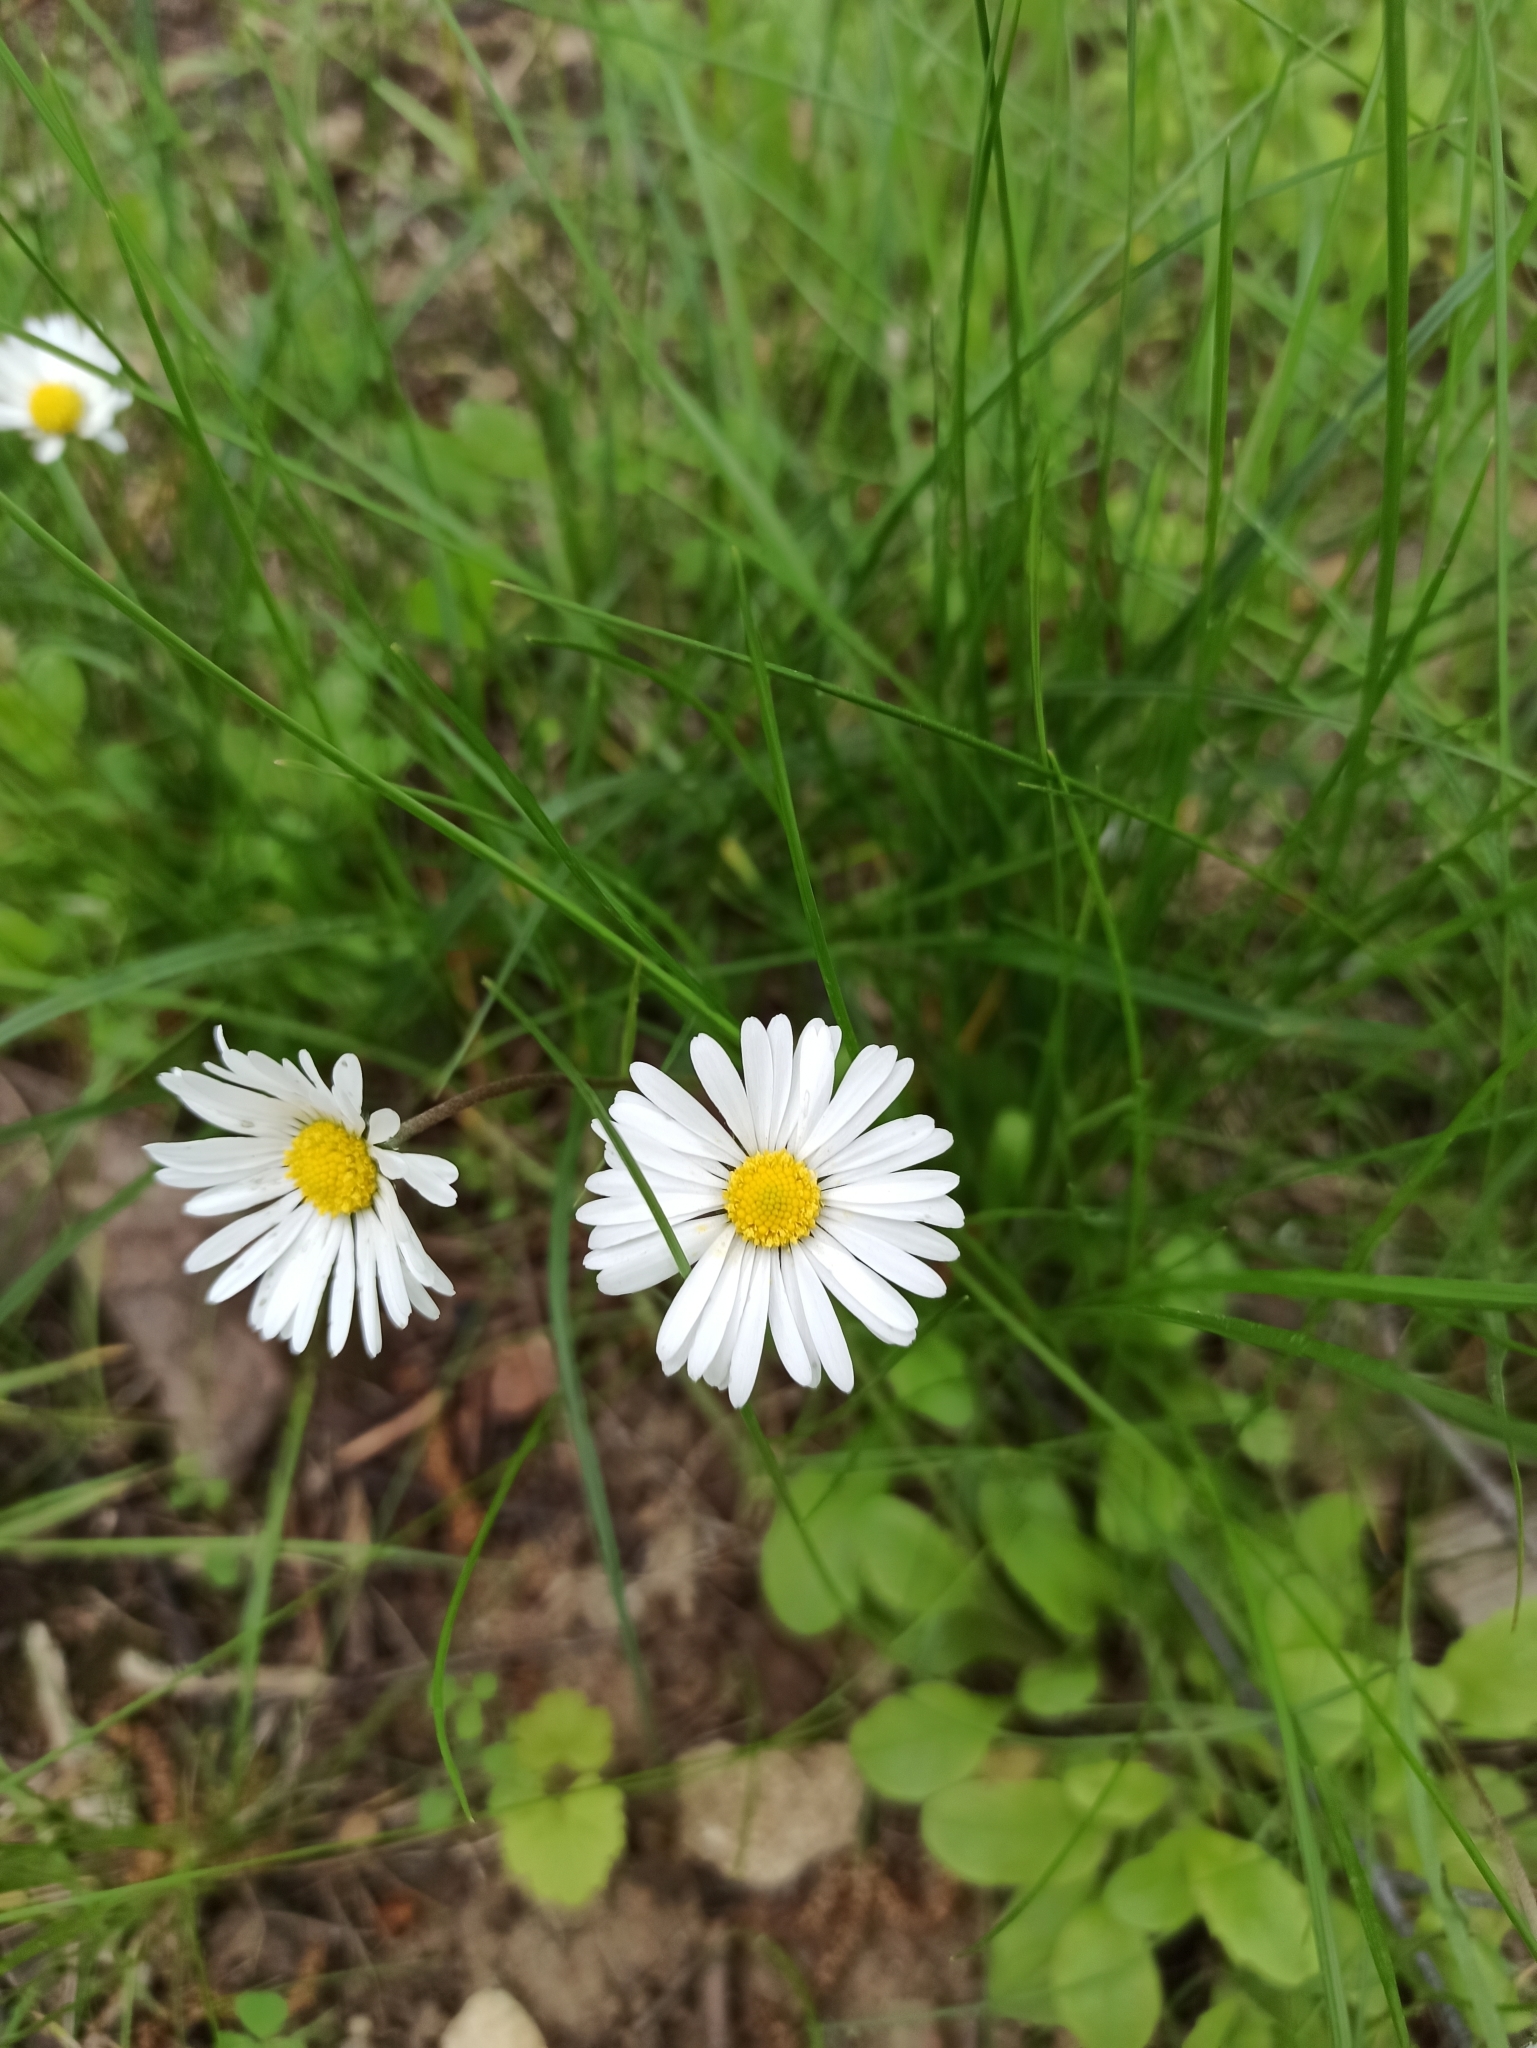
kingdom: Plantae
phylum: Tracheophyta
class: Magnoliopsida
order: Asterales
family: Asteraceae
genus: Bellis
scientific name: Bellis perennis
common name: Lawndaisy
